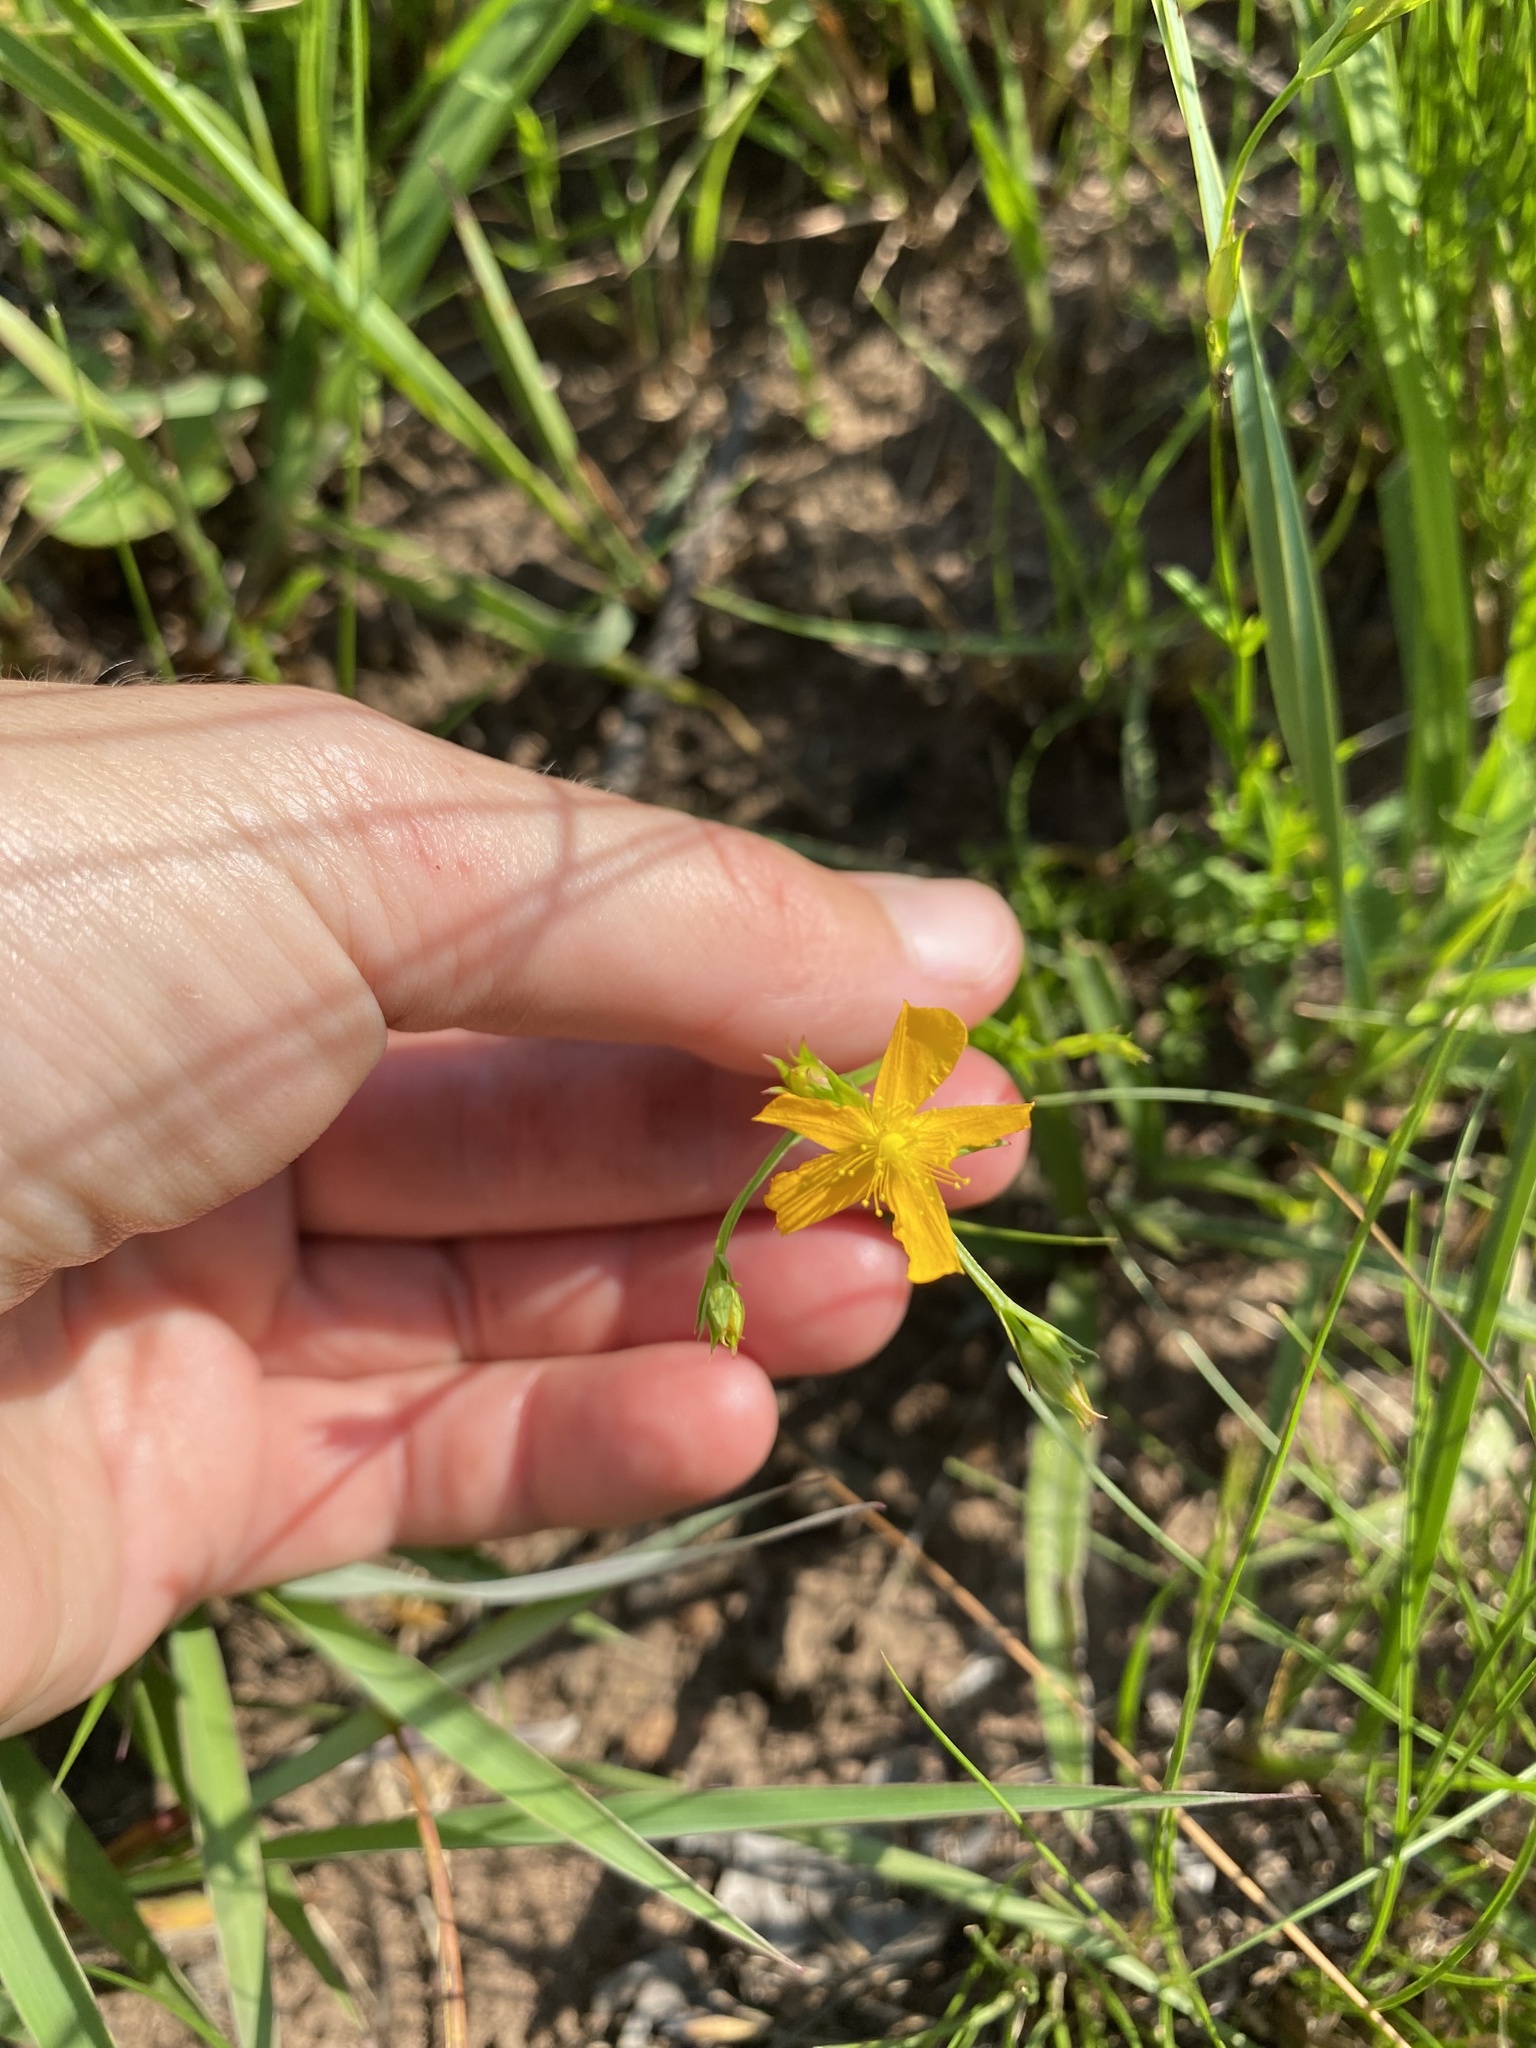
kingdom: Plantae
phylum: Tracheophyta
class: Magnoliopsida
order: Malpighiales
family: Hypericaceae
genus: Hypericum
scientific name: Hypericum lalandii
